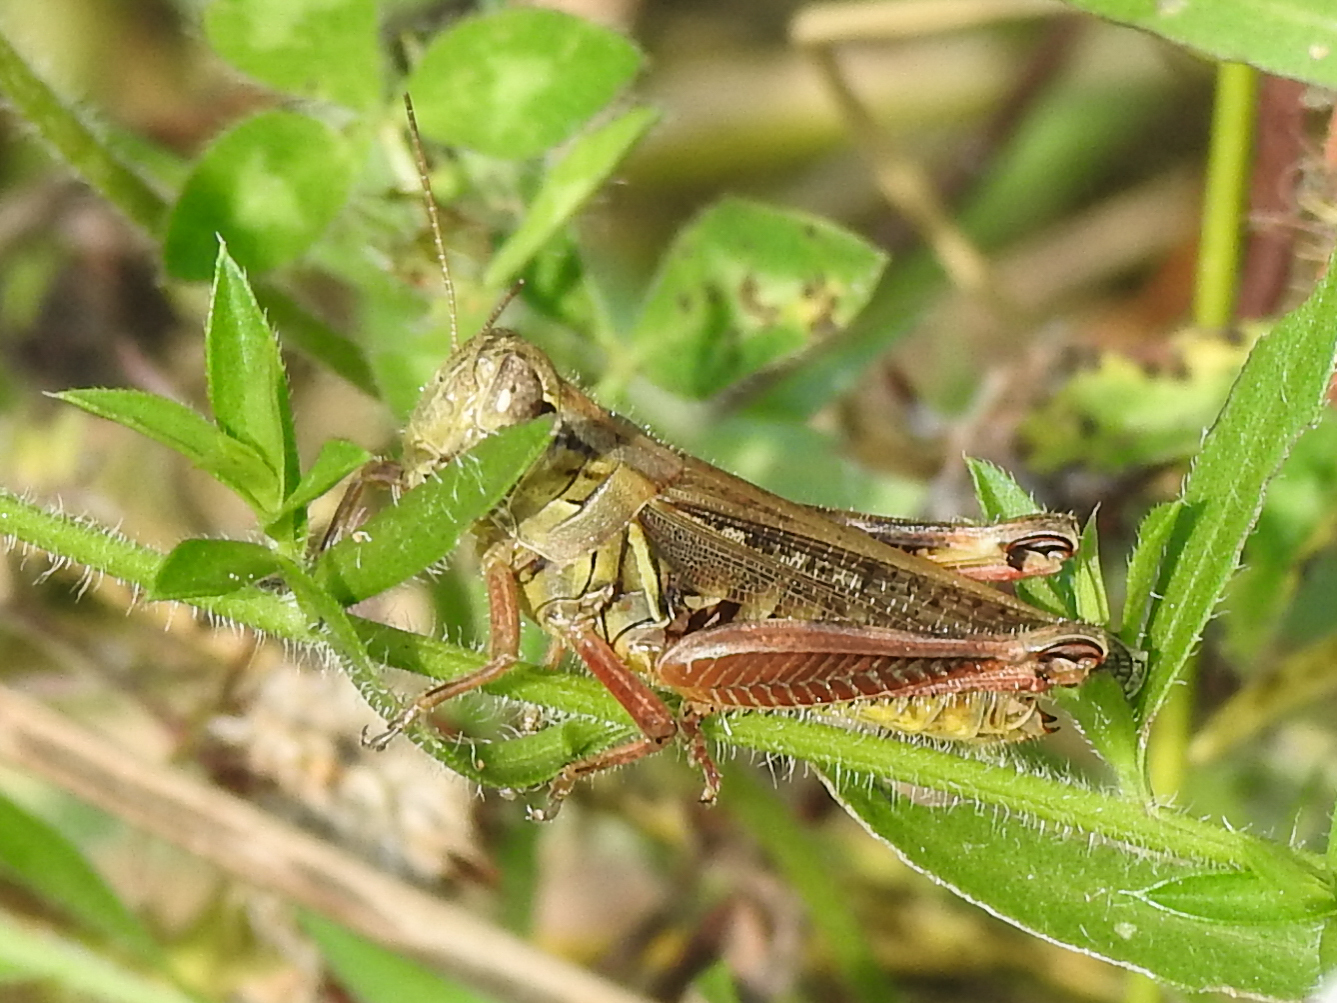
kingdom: Animalia
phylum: Arthropoda
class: Insecta
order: Orthoptera
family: Acrididae
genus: Melanoplus
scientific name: Melanoplus femurrubrum
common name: Red-legged grasshopper
